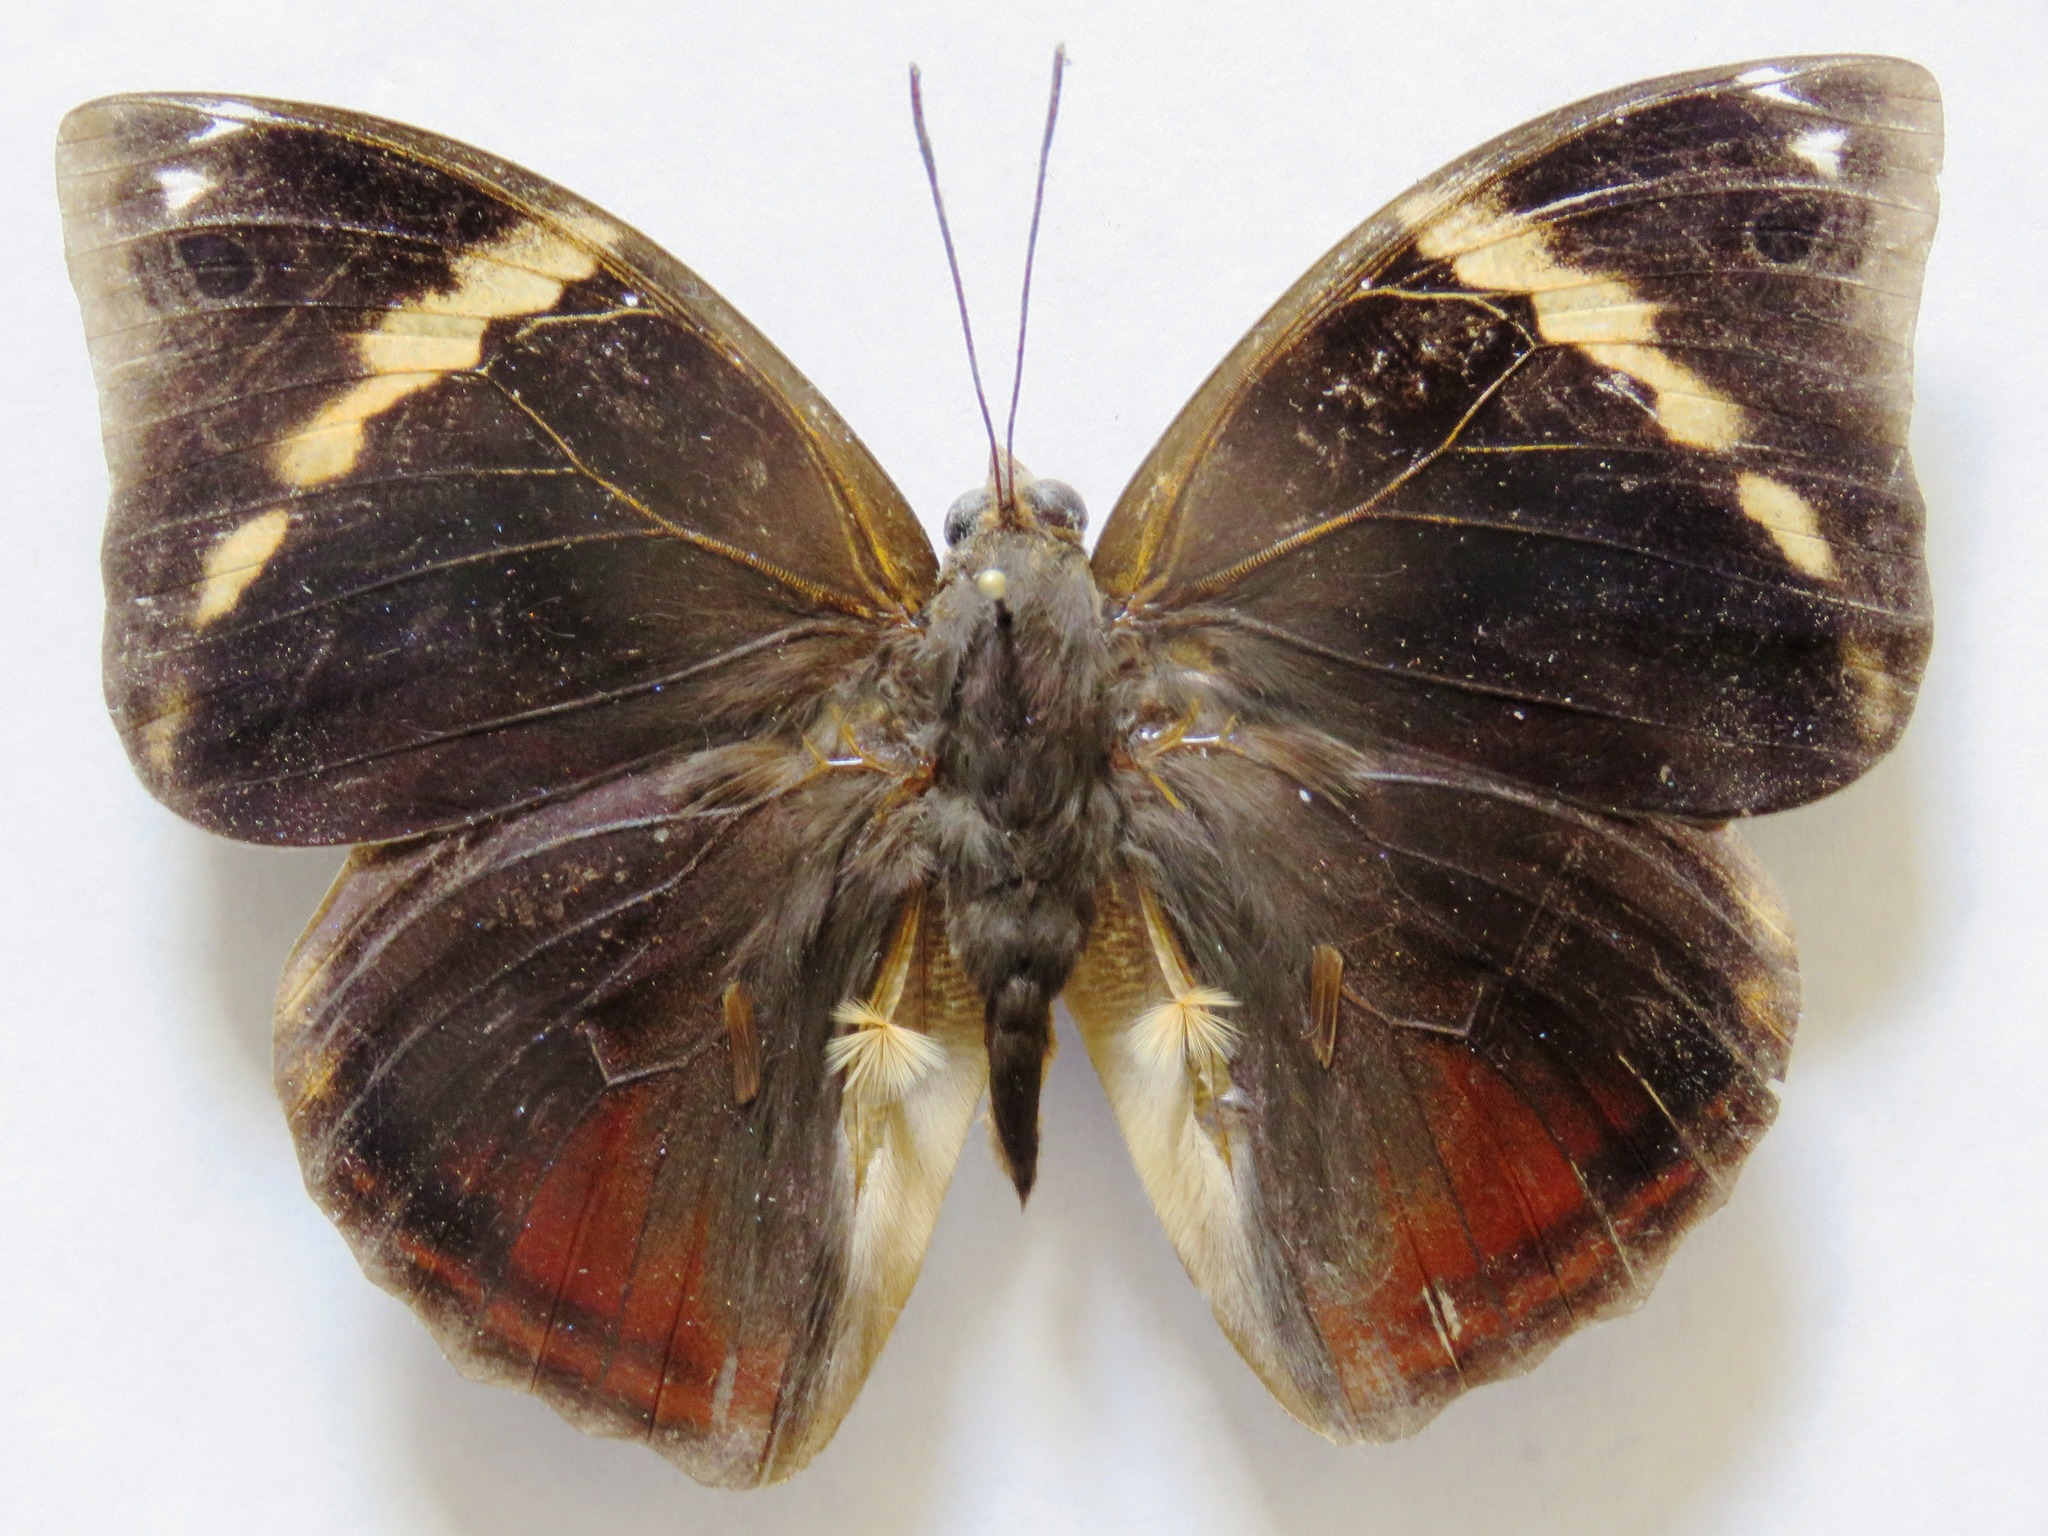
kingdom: Animalia
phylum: Arthropoda
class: Insecta
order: Lepidoptera
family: Nymphalidae
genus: Opsiphanes
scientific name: Opsiphanes cassiae
